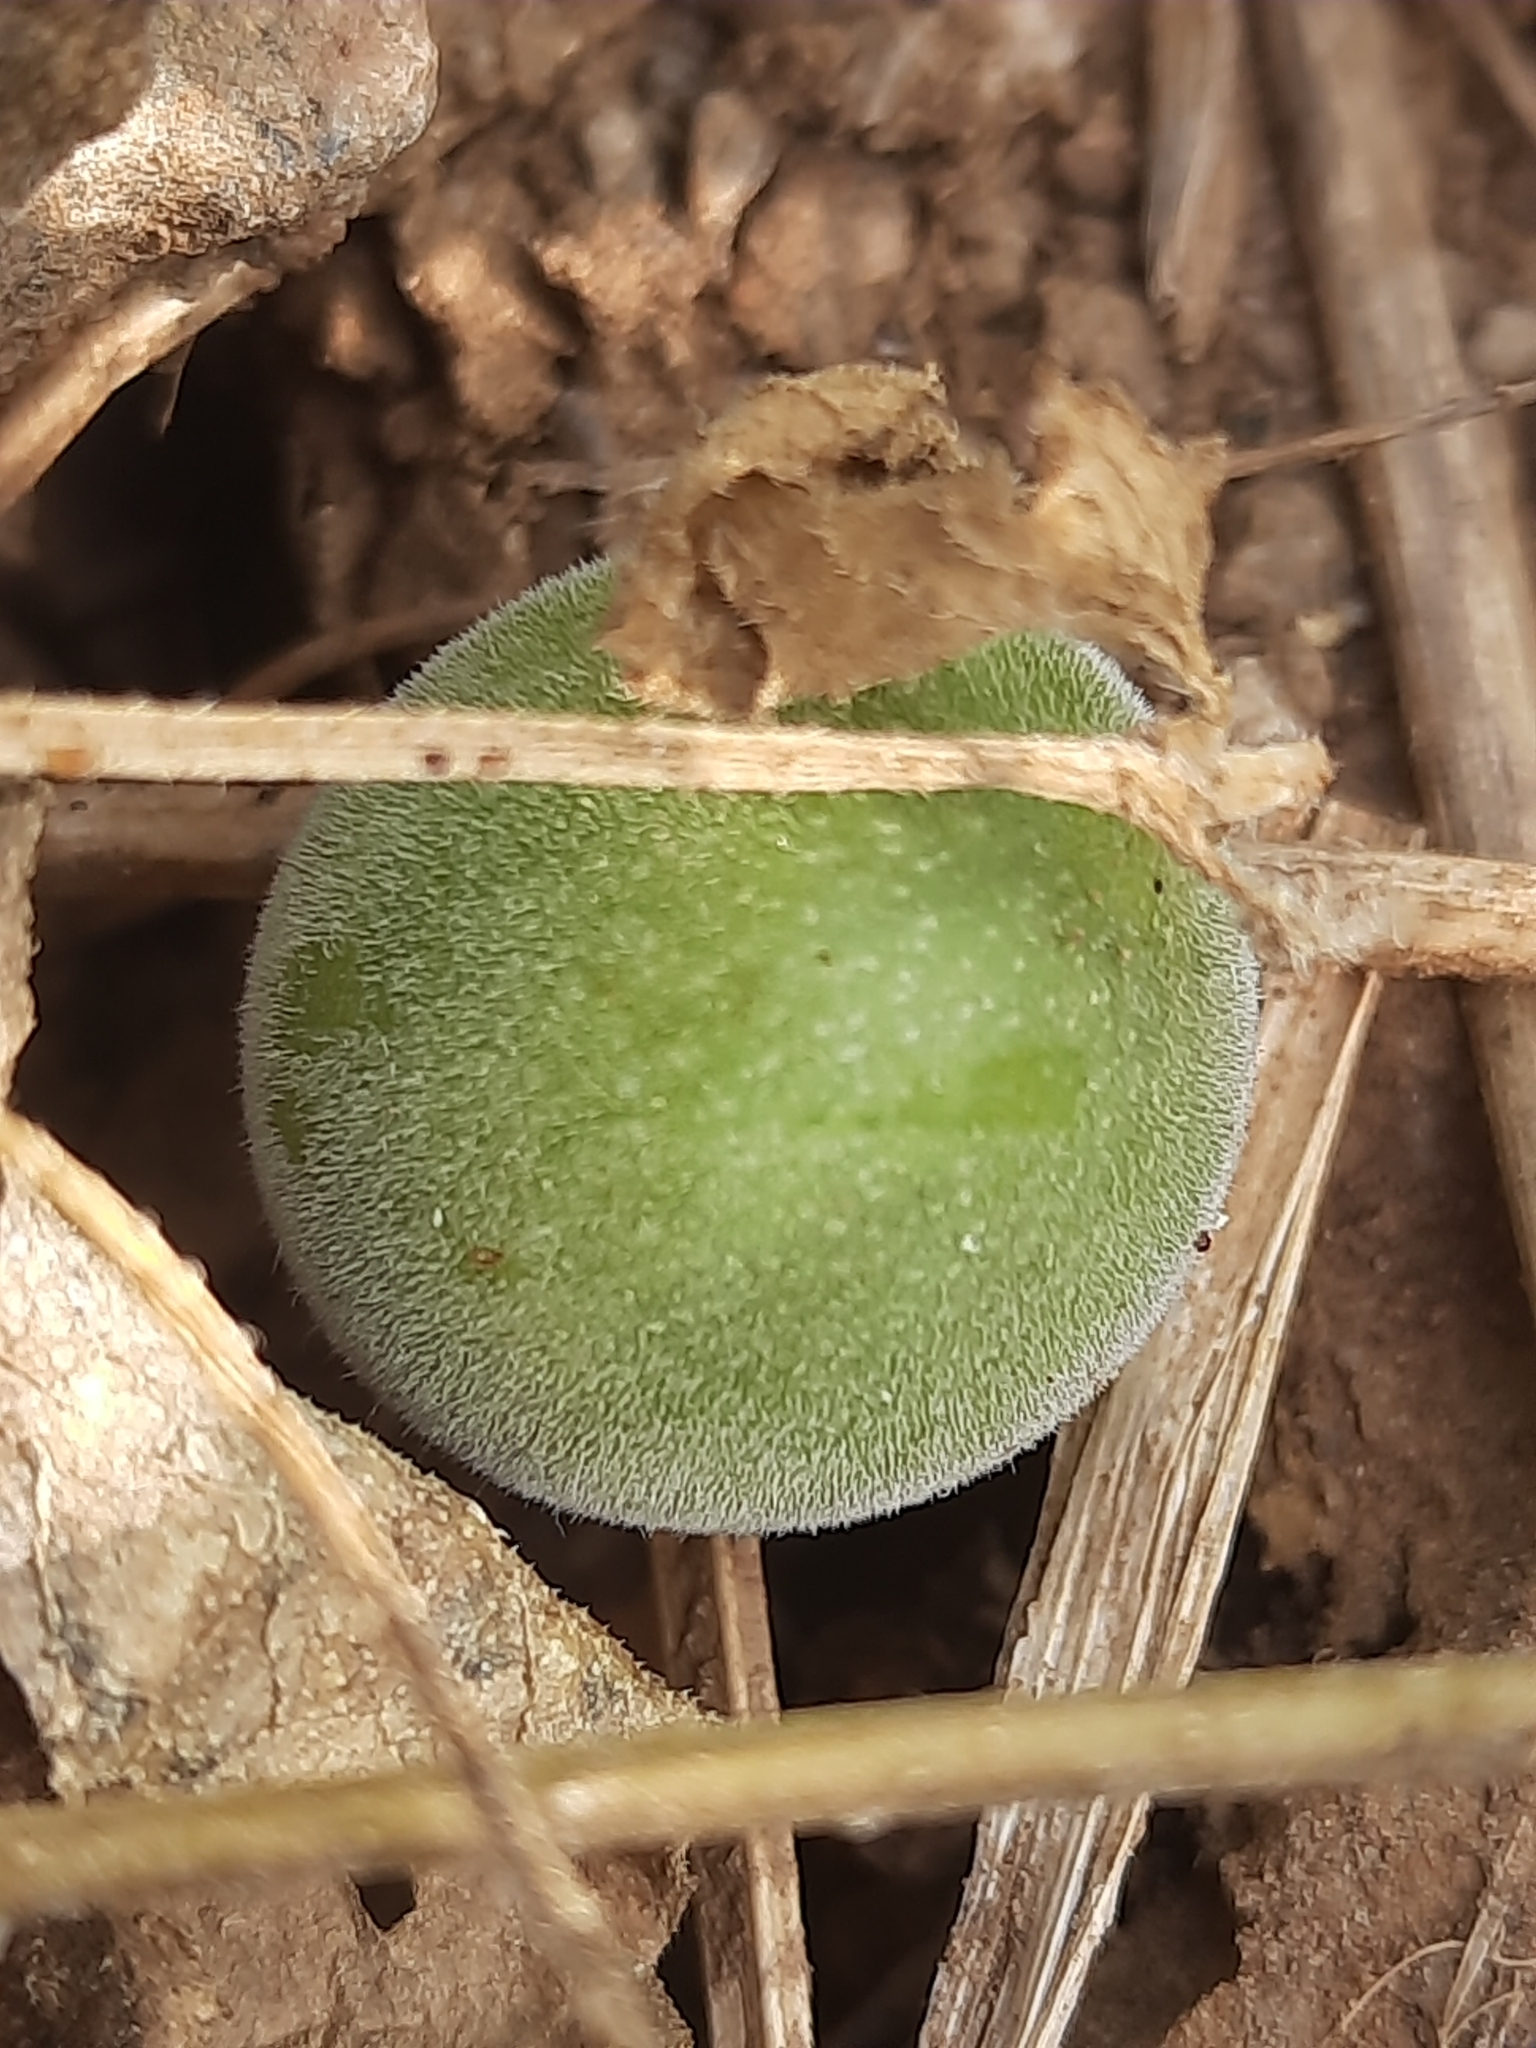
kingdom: Plantae
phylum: Tracheophyta
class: Magnoliopsida
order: Cucurbitales
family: Cucurbitaceae
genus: Cucumis
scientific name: Cucumis melo
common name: Melon
